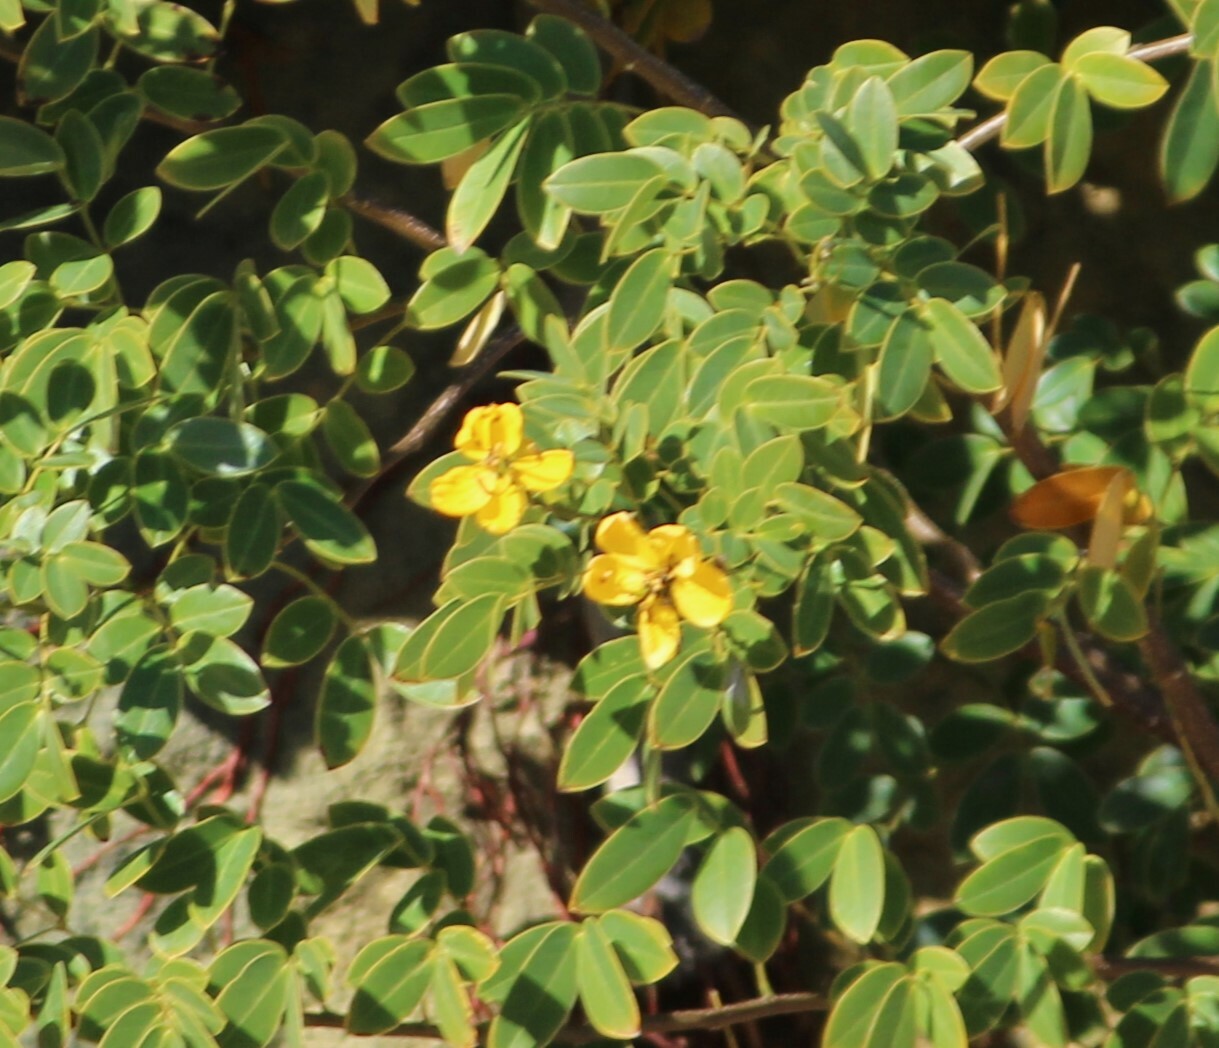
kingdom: Plantae
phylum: Tracheophyta
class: Magnoliopsida
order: Fabales
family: Fabaceae
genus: Senna
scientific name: Senna pendula
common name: Easter cassia
